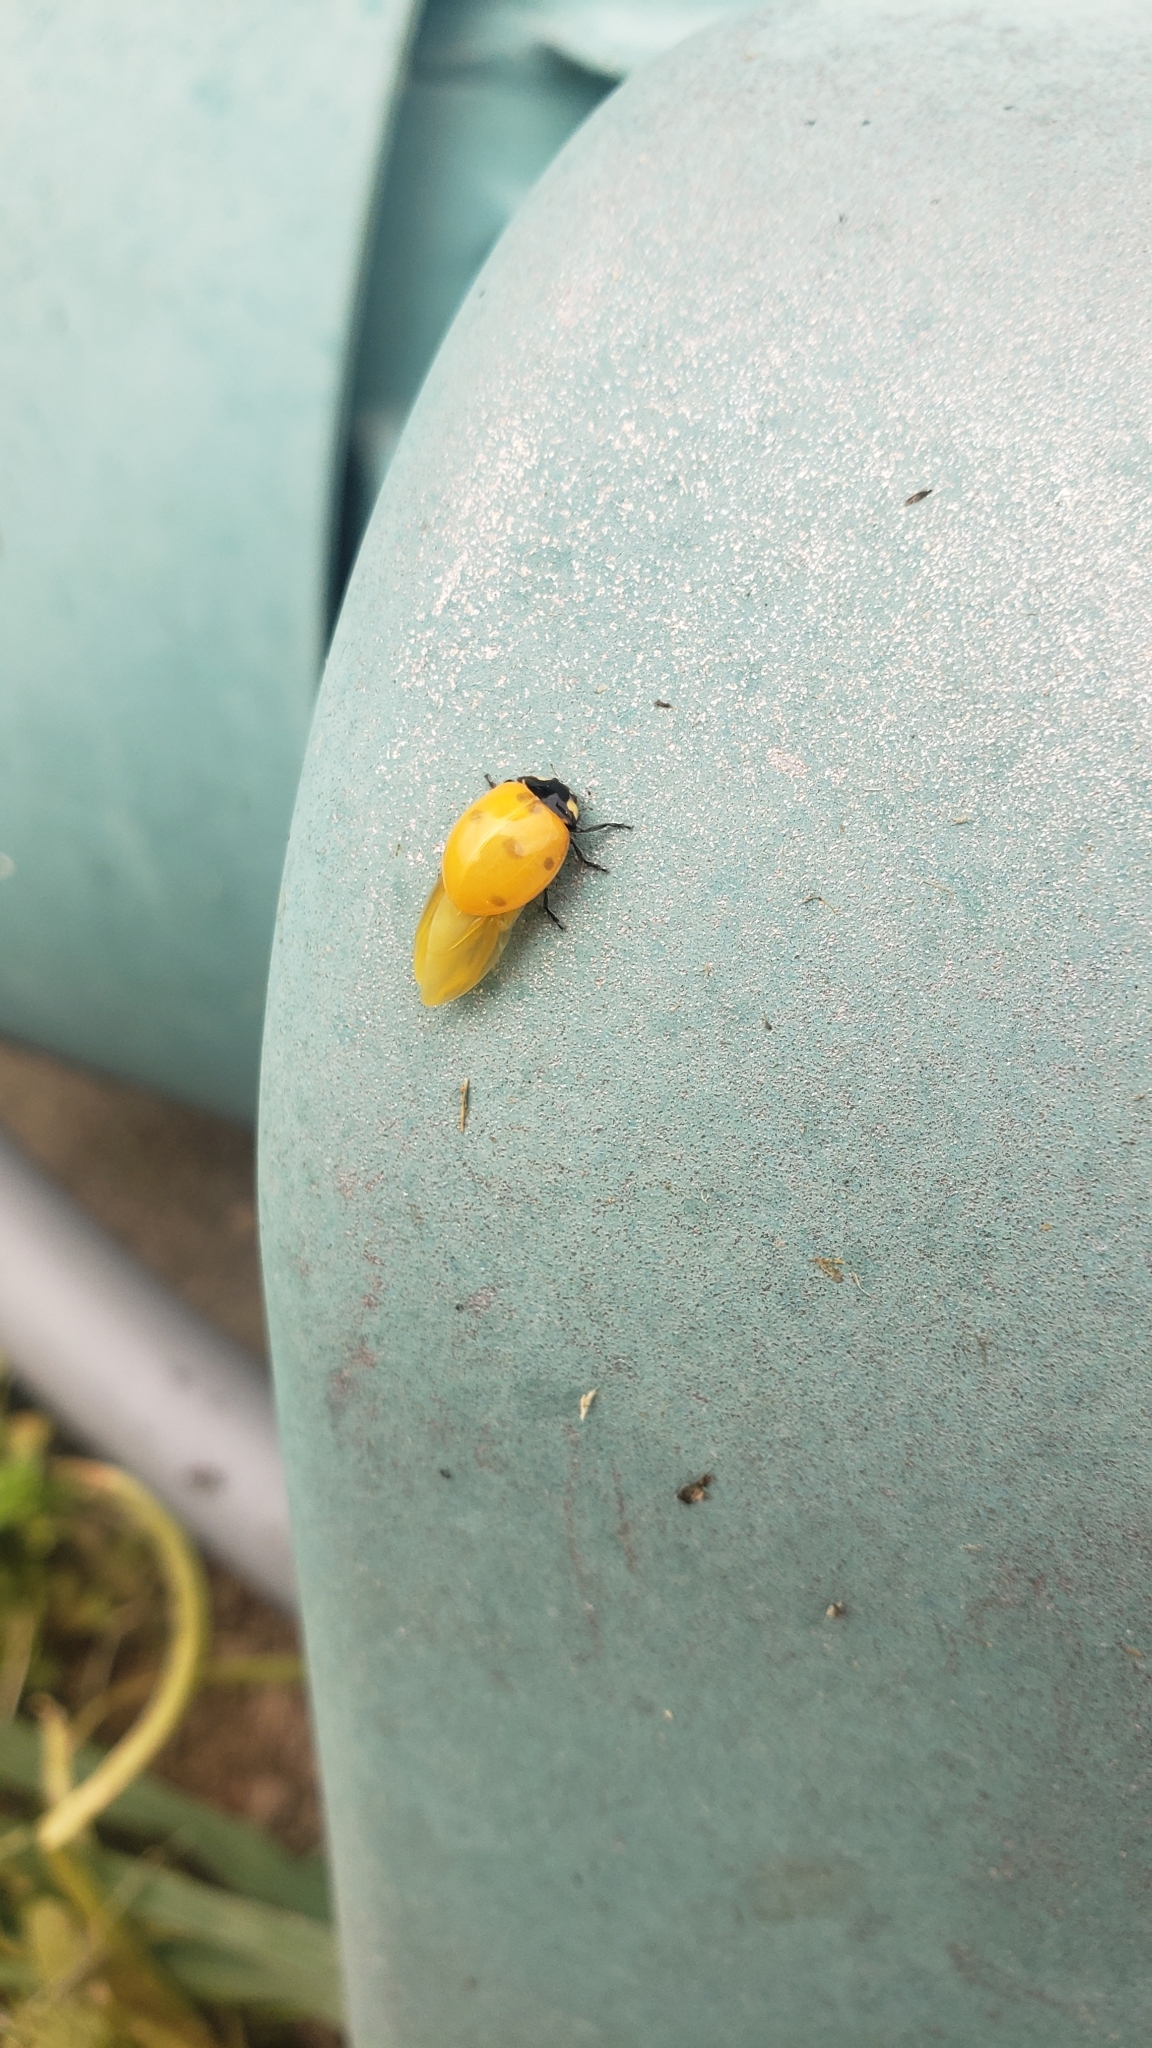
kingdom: Animalia
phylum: Arthropoda
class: Insecta
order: Coleoptera
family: Coccinellidae
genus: Coccinella
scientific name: Coccinella septempunctata
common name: Sevenspotted lady beetle
